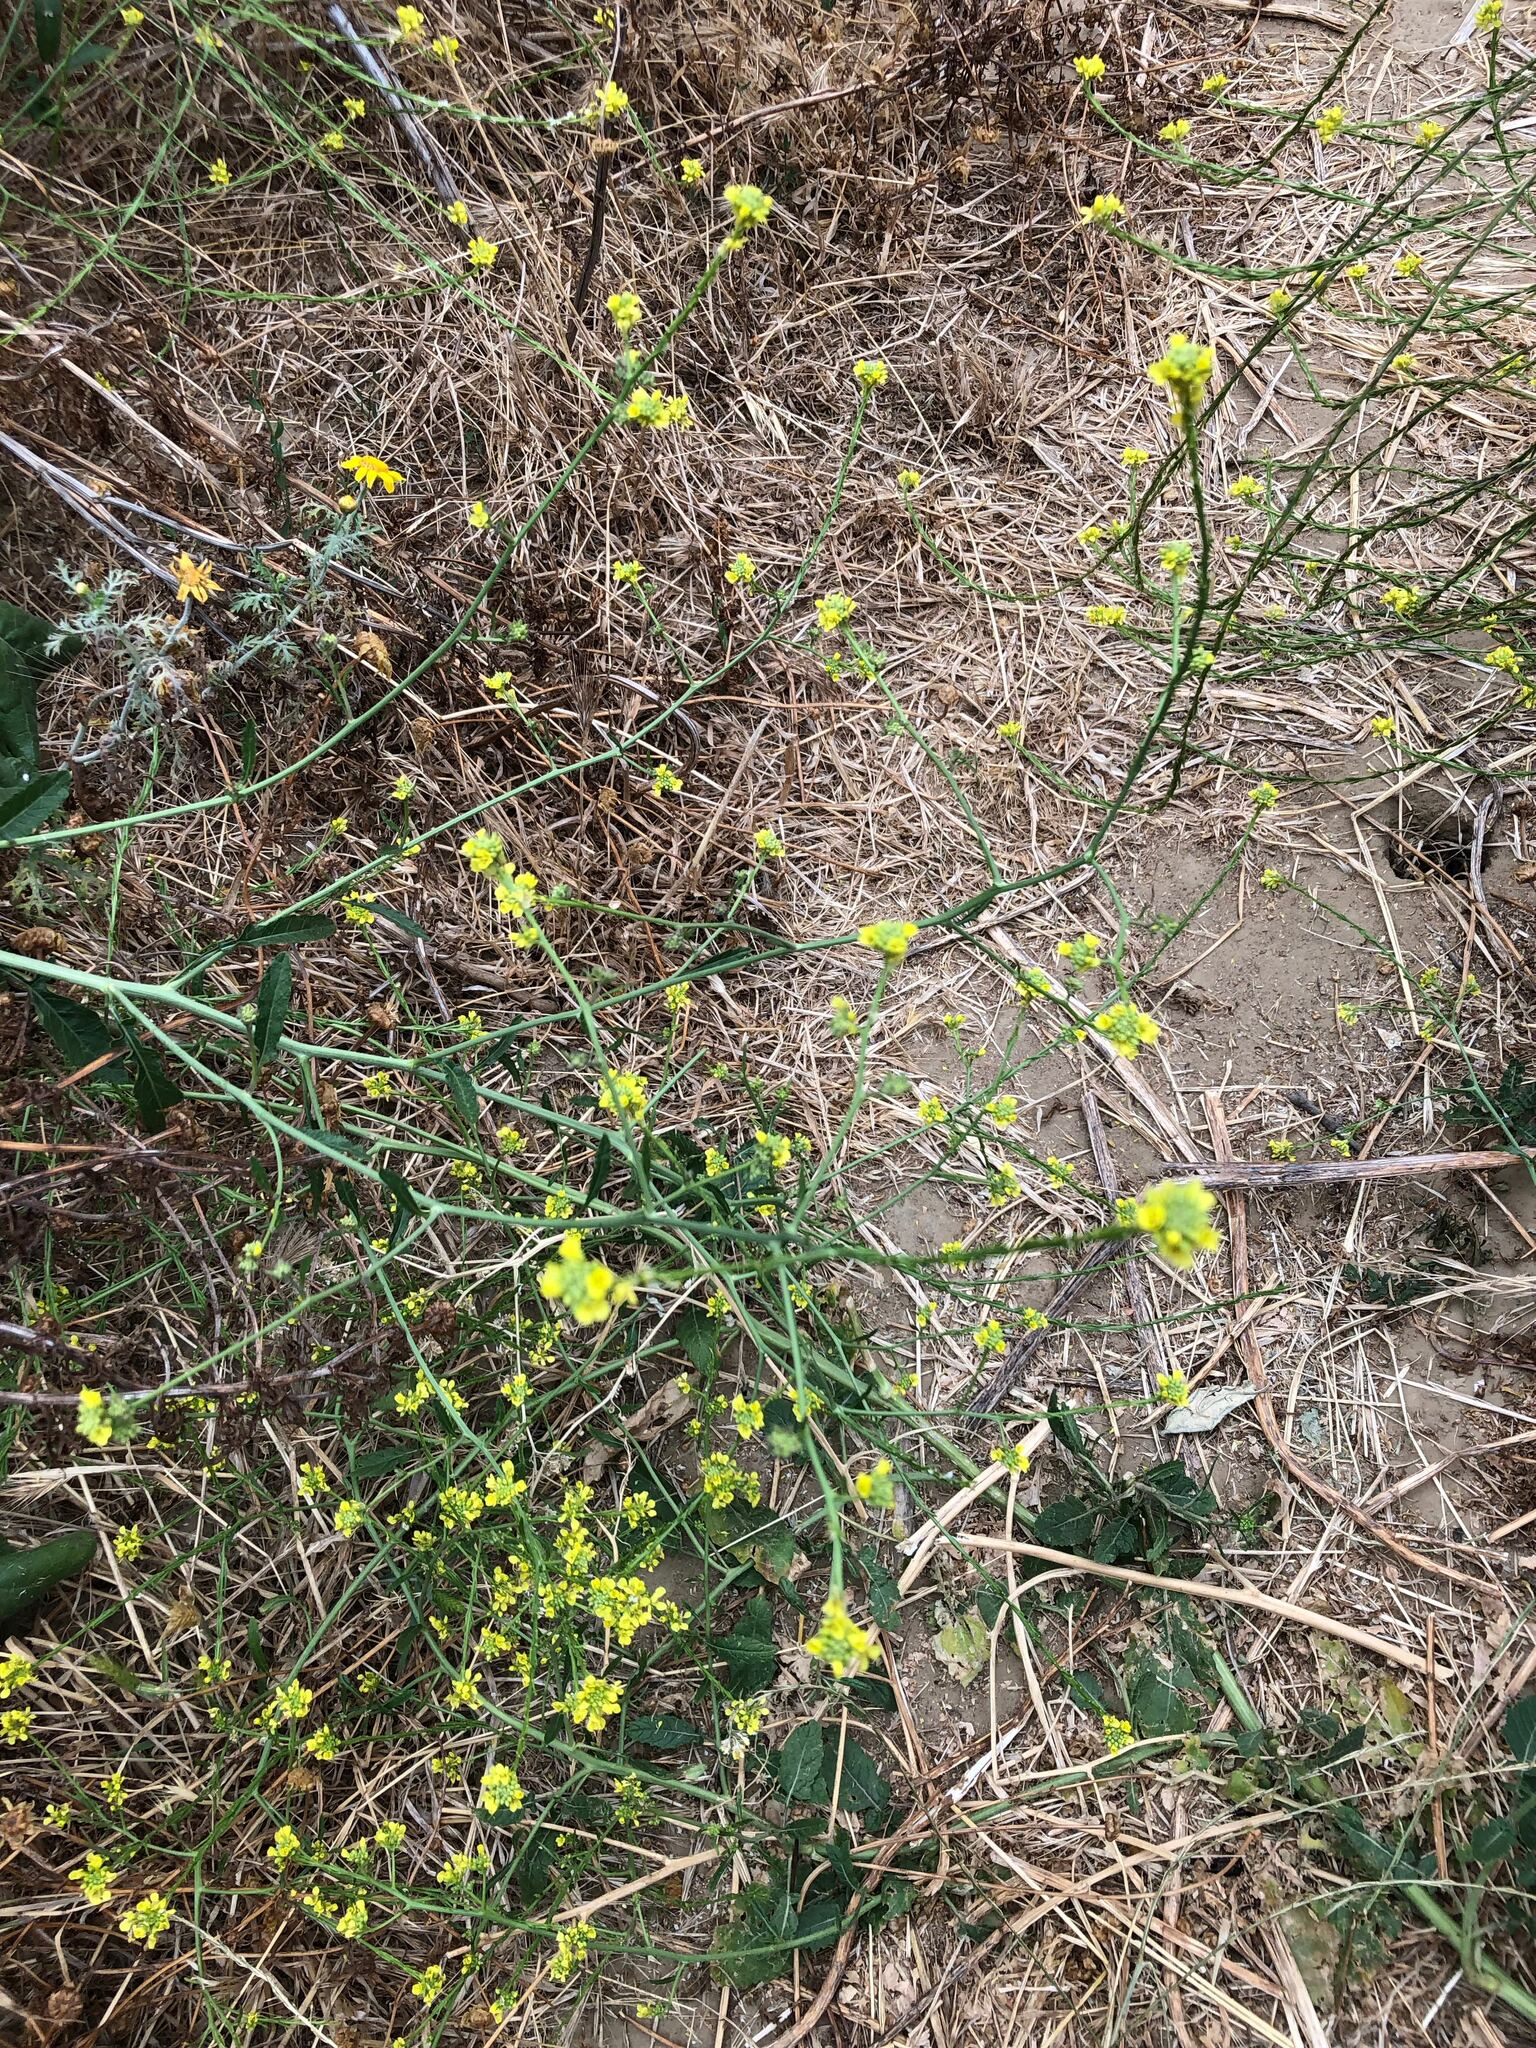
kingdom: Plantae
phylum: Tracheophyta
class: Magnoliopsida
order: Brassicales
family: Brassicaceae
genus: Hirschfeldia
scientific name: Hirschfeldia incana
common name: Hoary mustard
